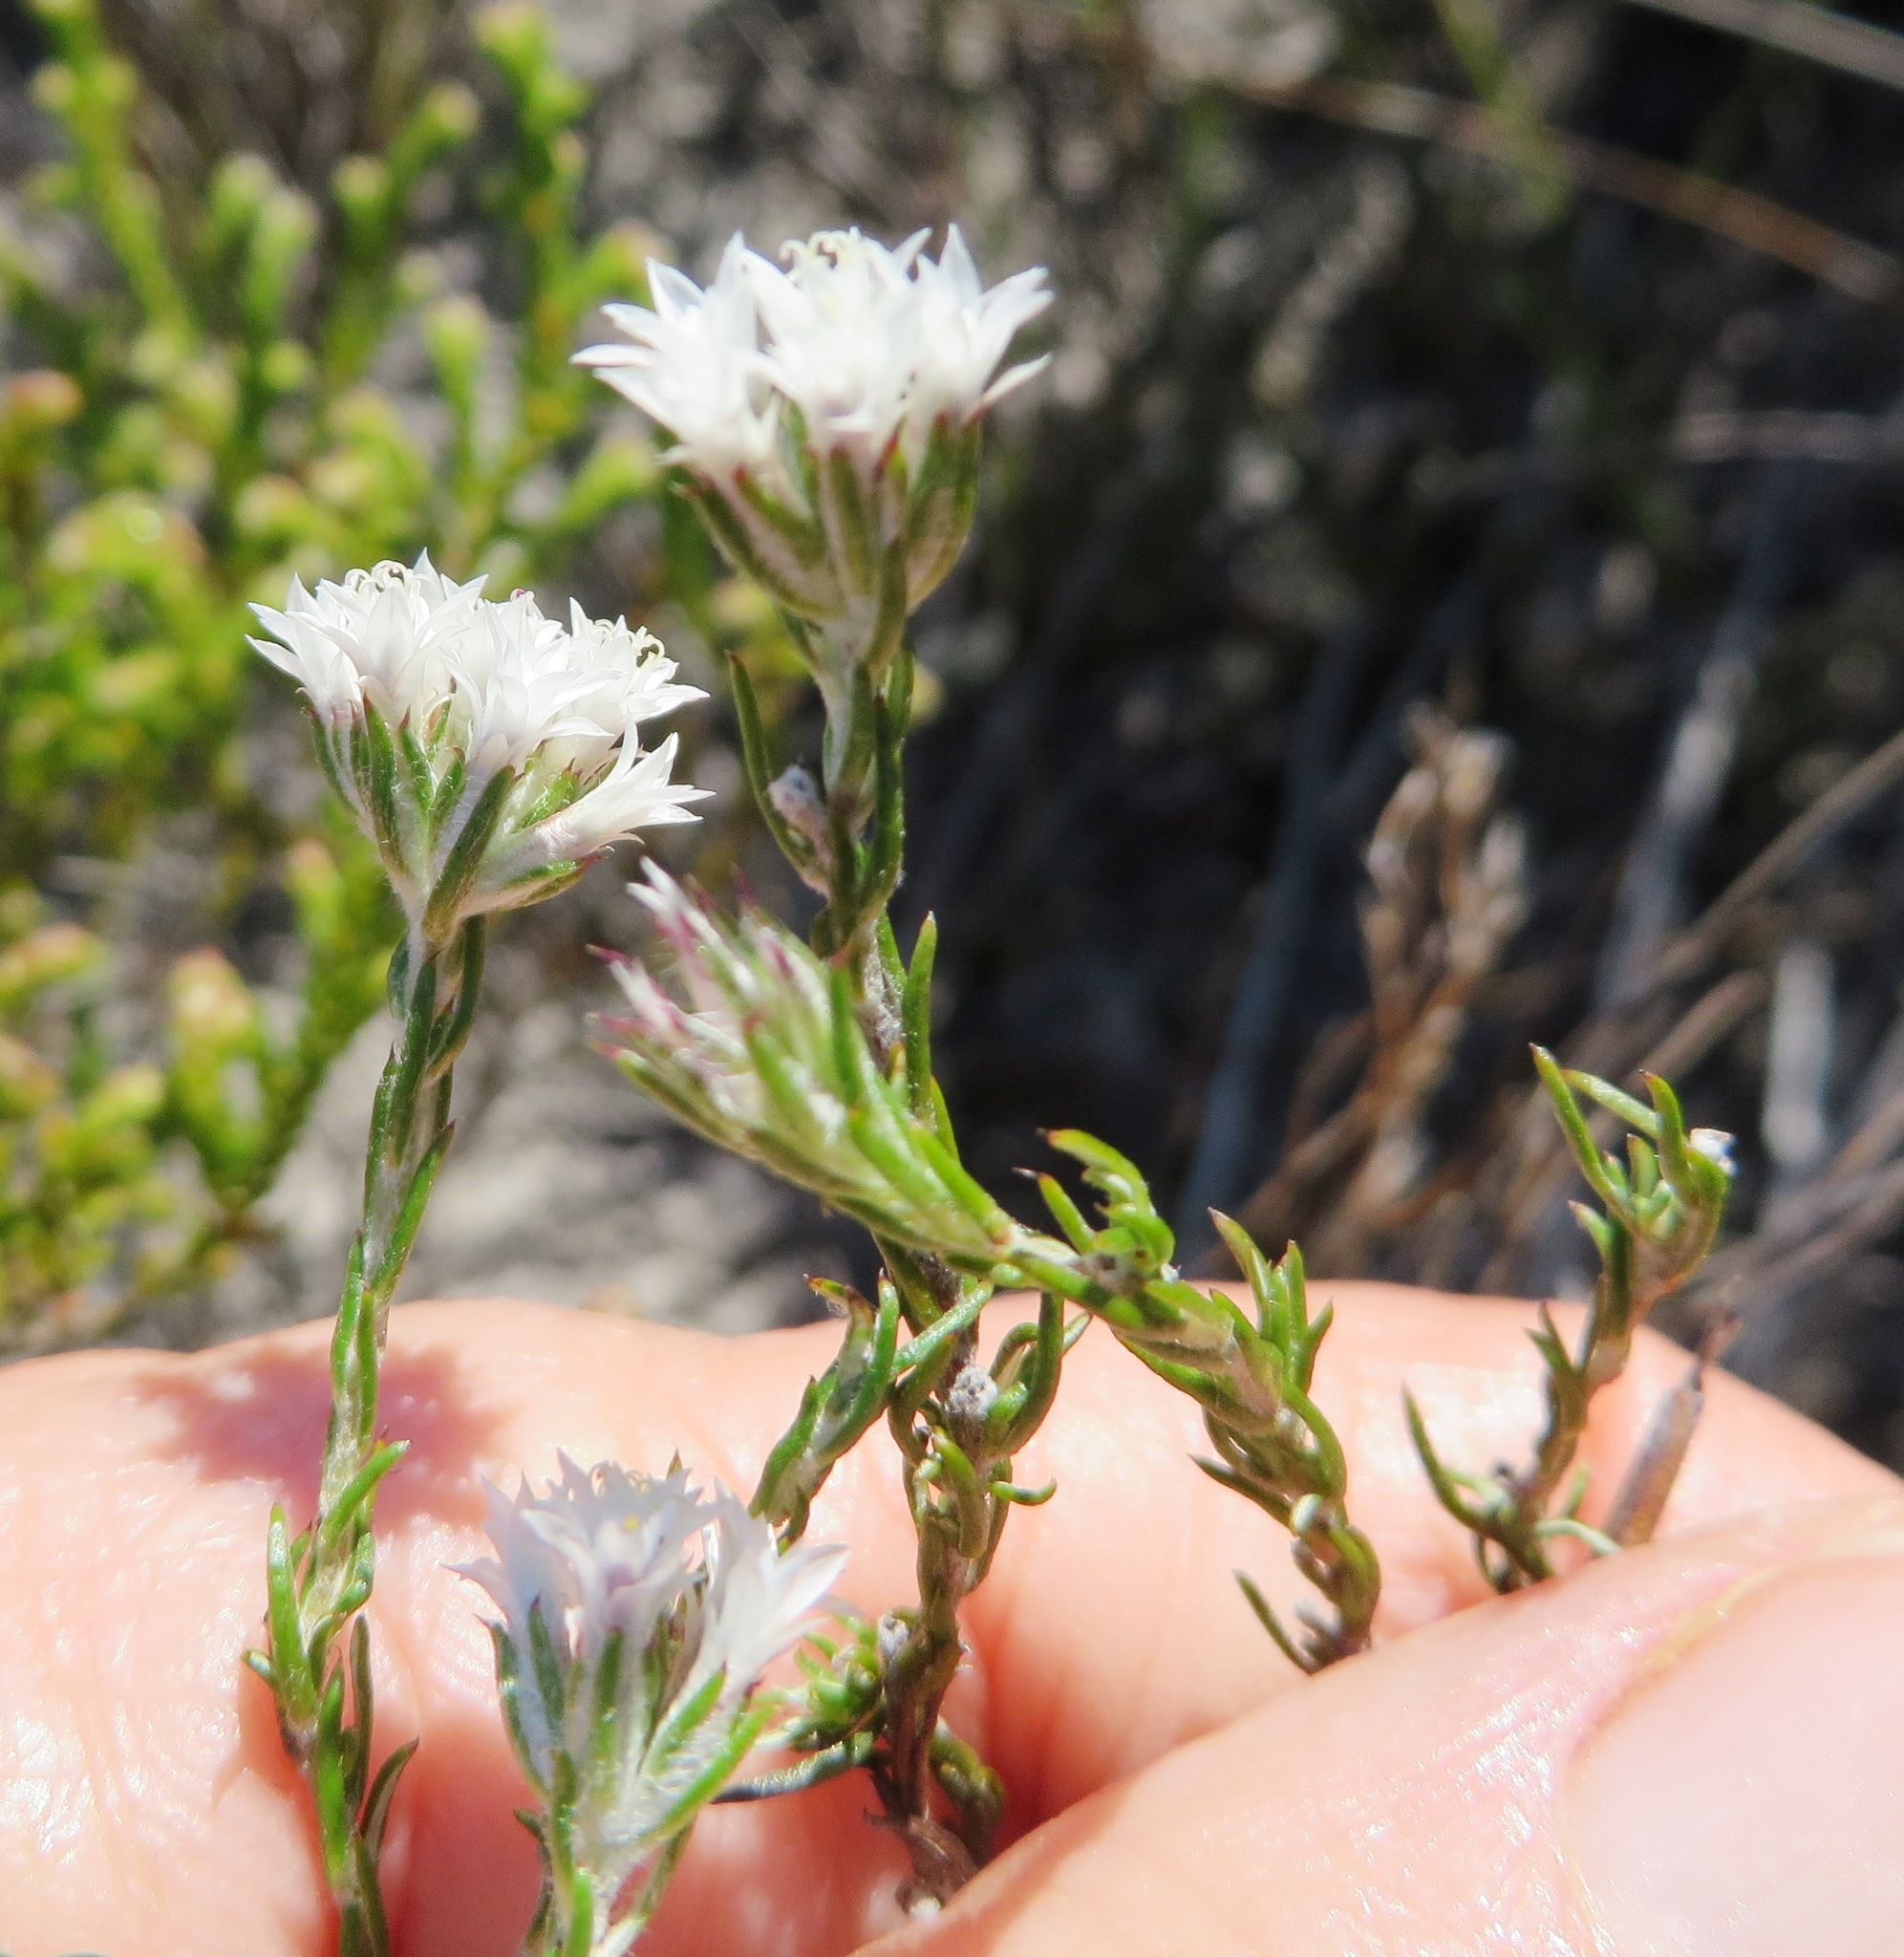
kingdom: Plantae
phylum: Tracheophyta
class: Magnoliopsida
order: Asterales
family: Asteraceae
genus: Metalasia
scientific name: Metalasia quinqueflora
